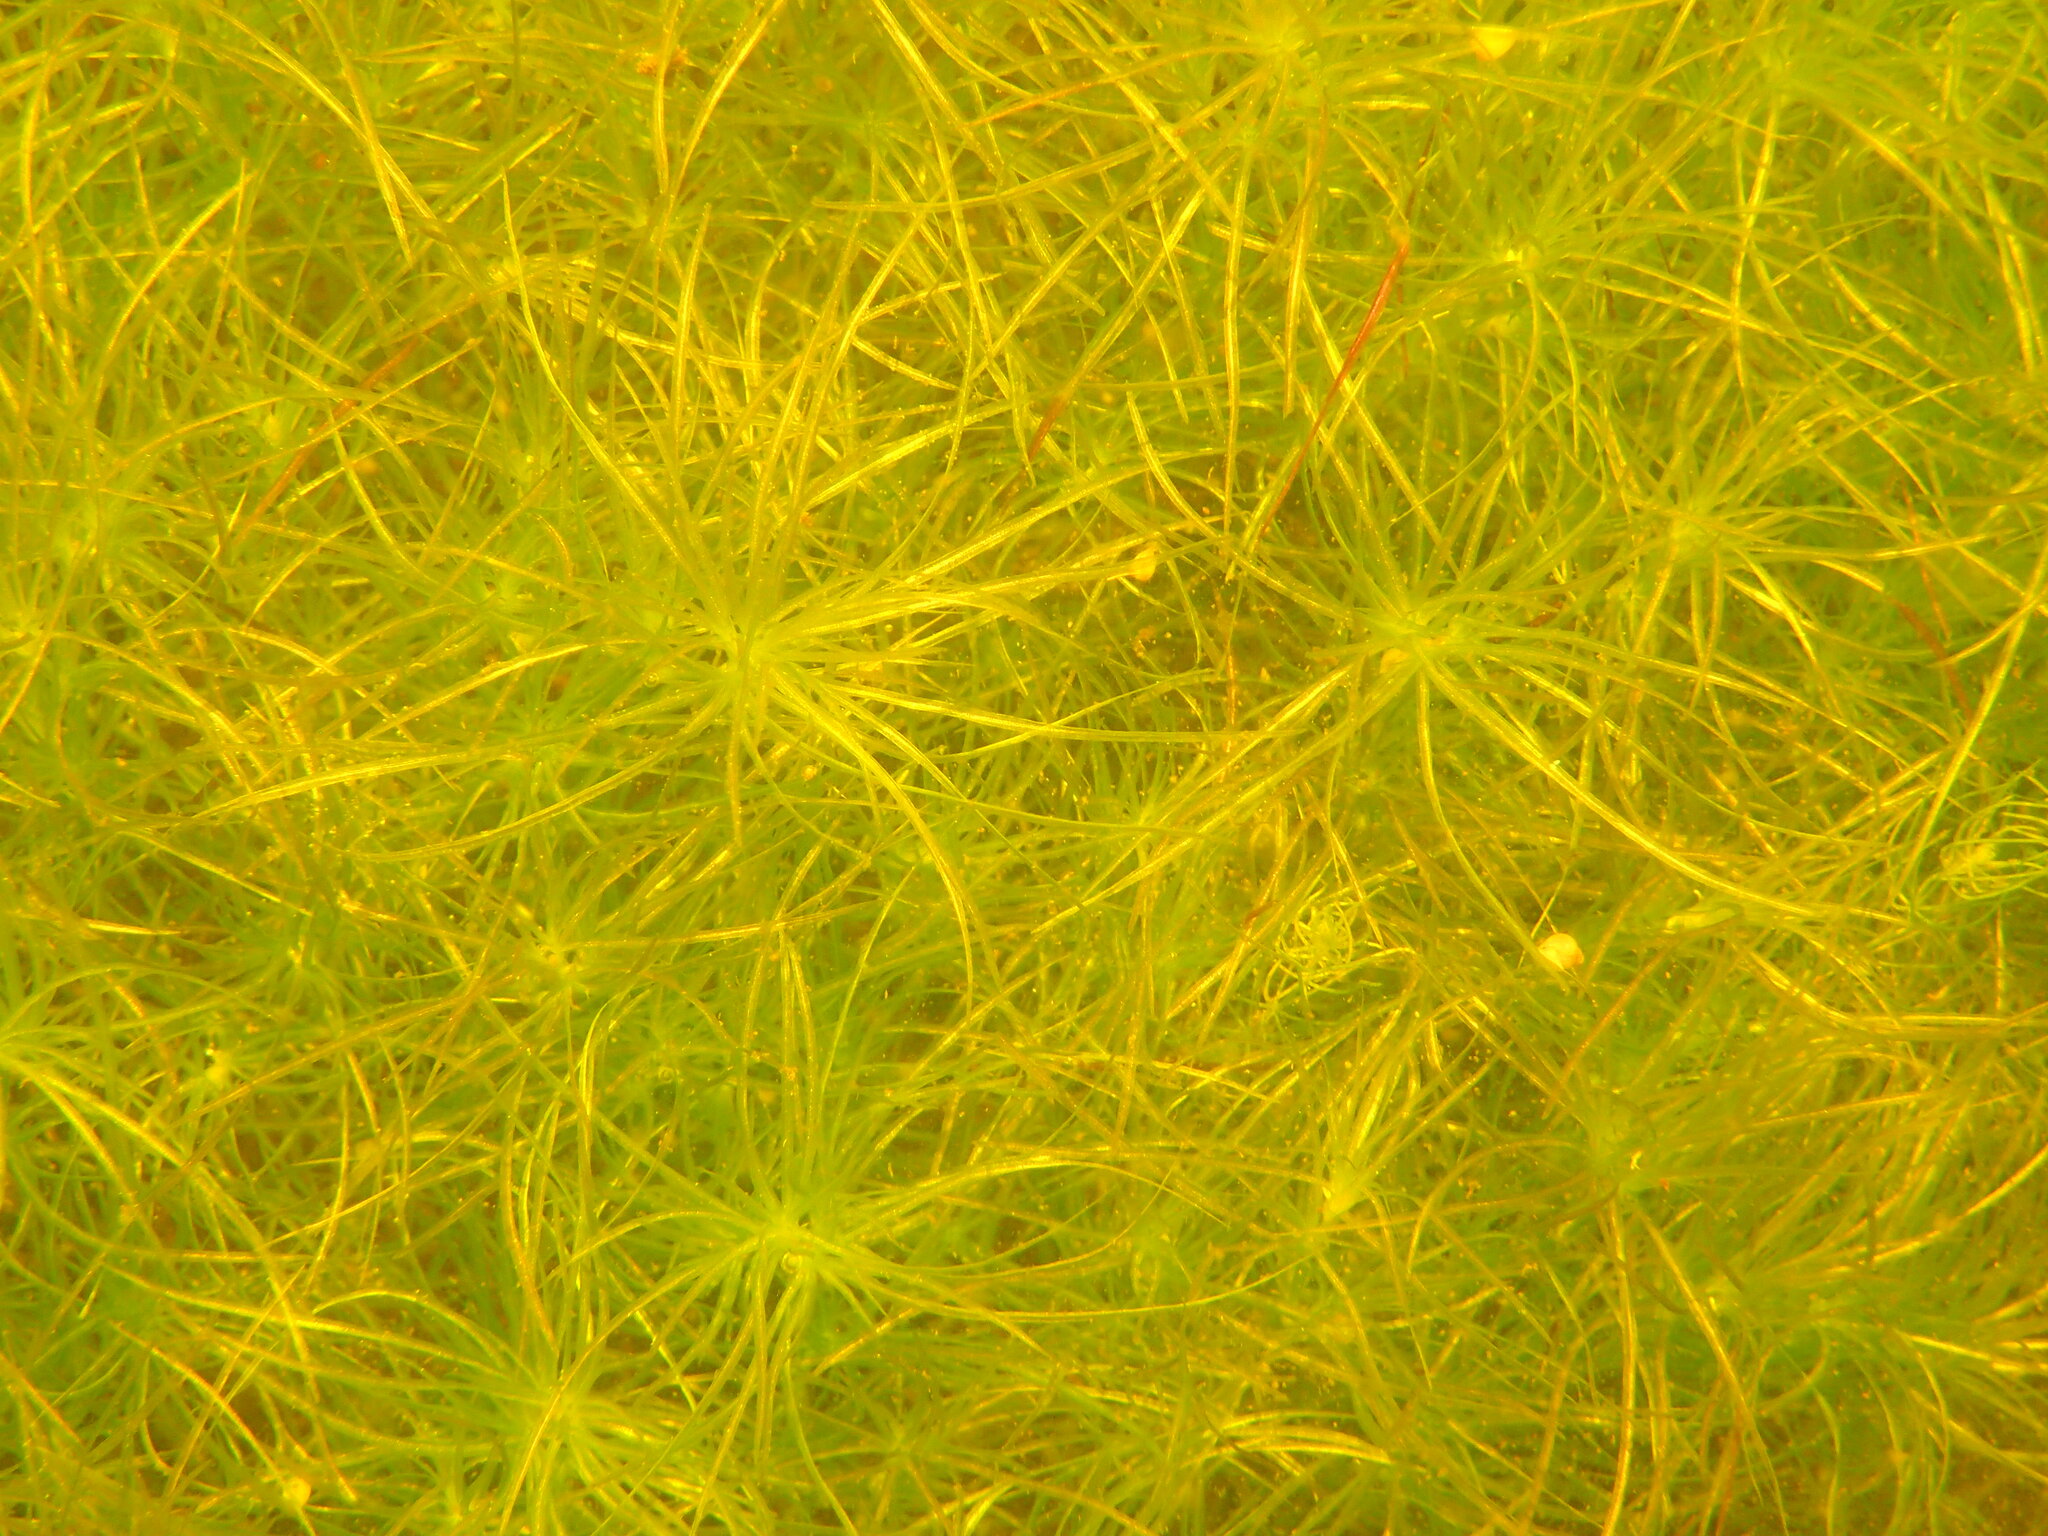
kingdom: Plantae
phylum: Tracheophyta
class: Liliopsida
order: Alismatales
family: Hydrocharitaceae
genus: Najas
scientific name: Najas flexilis
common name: Slender naiad
